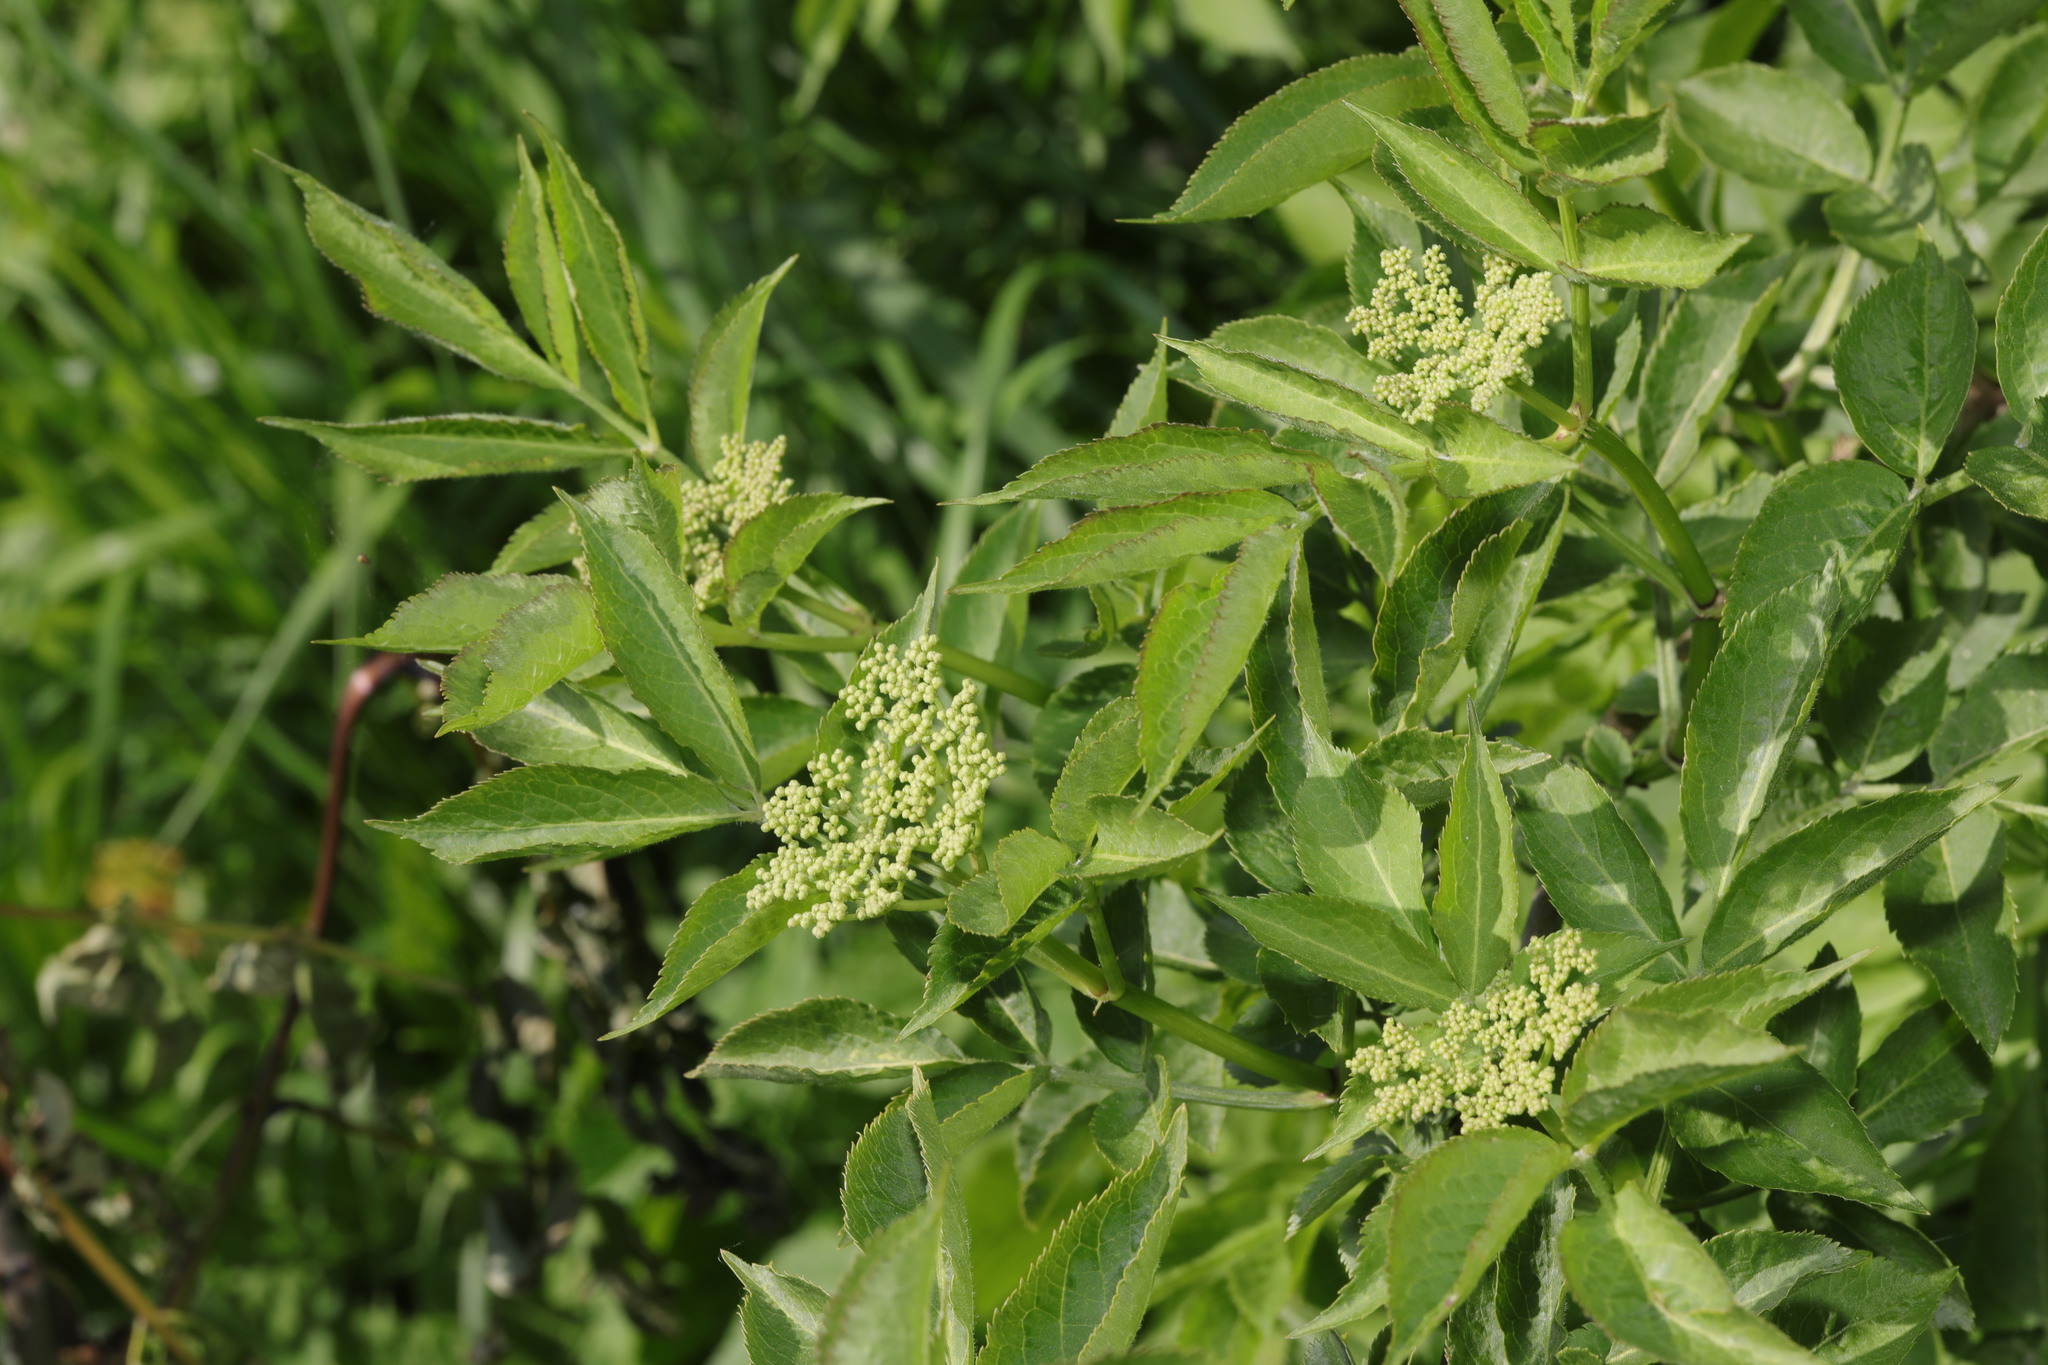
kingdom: Plantae
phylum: Tracheophyta
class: Magnoliopsida
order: Dipsacales
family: Viburnaceae
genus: Sambucus
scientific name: Sambucus nigra
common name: Elder
